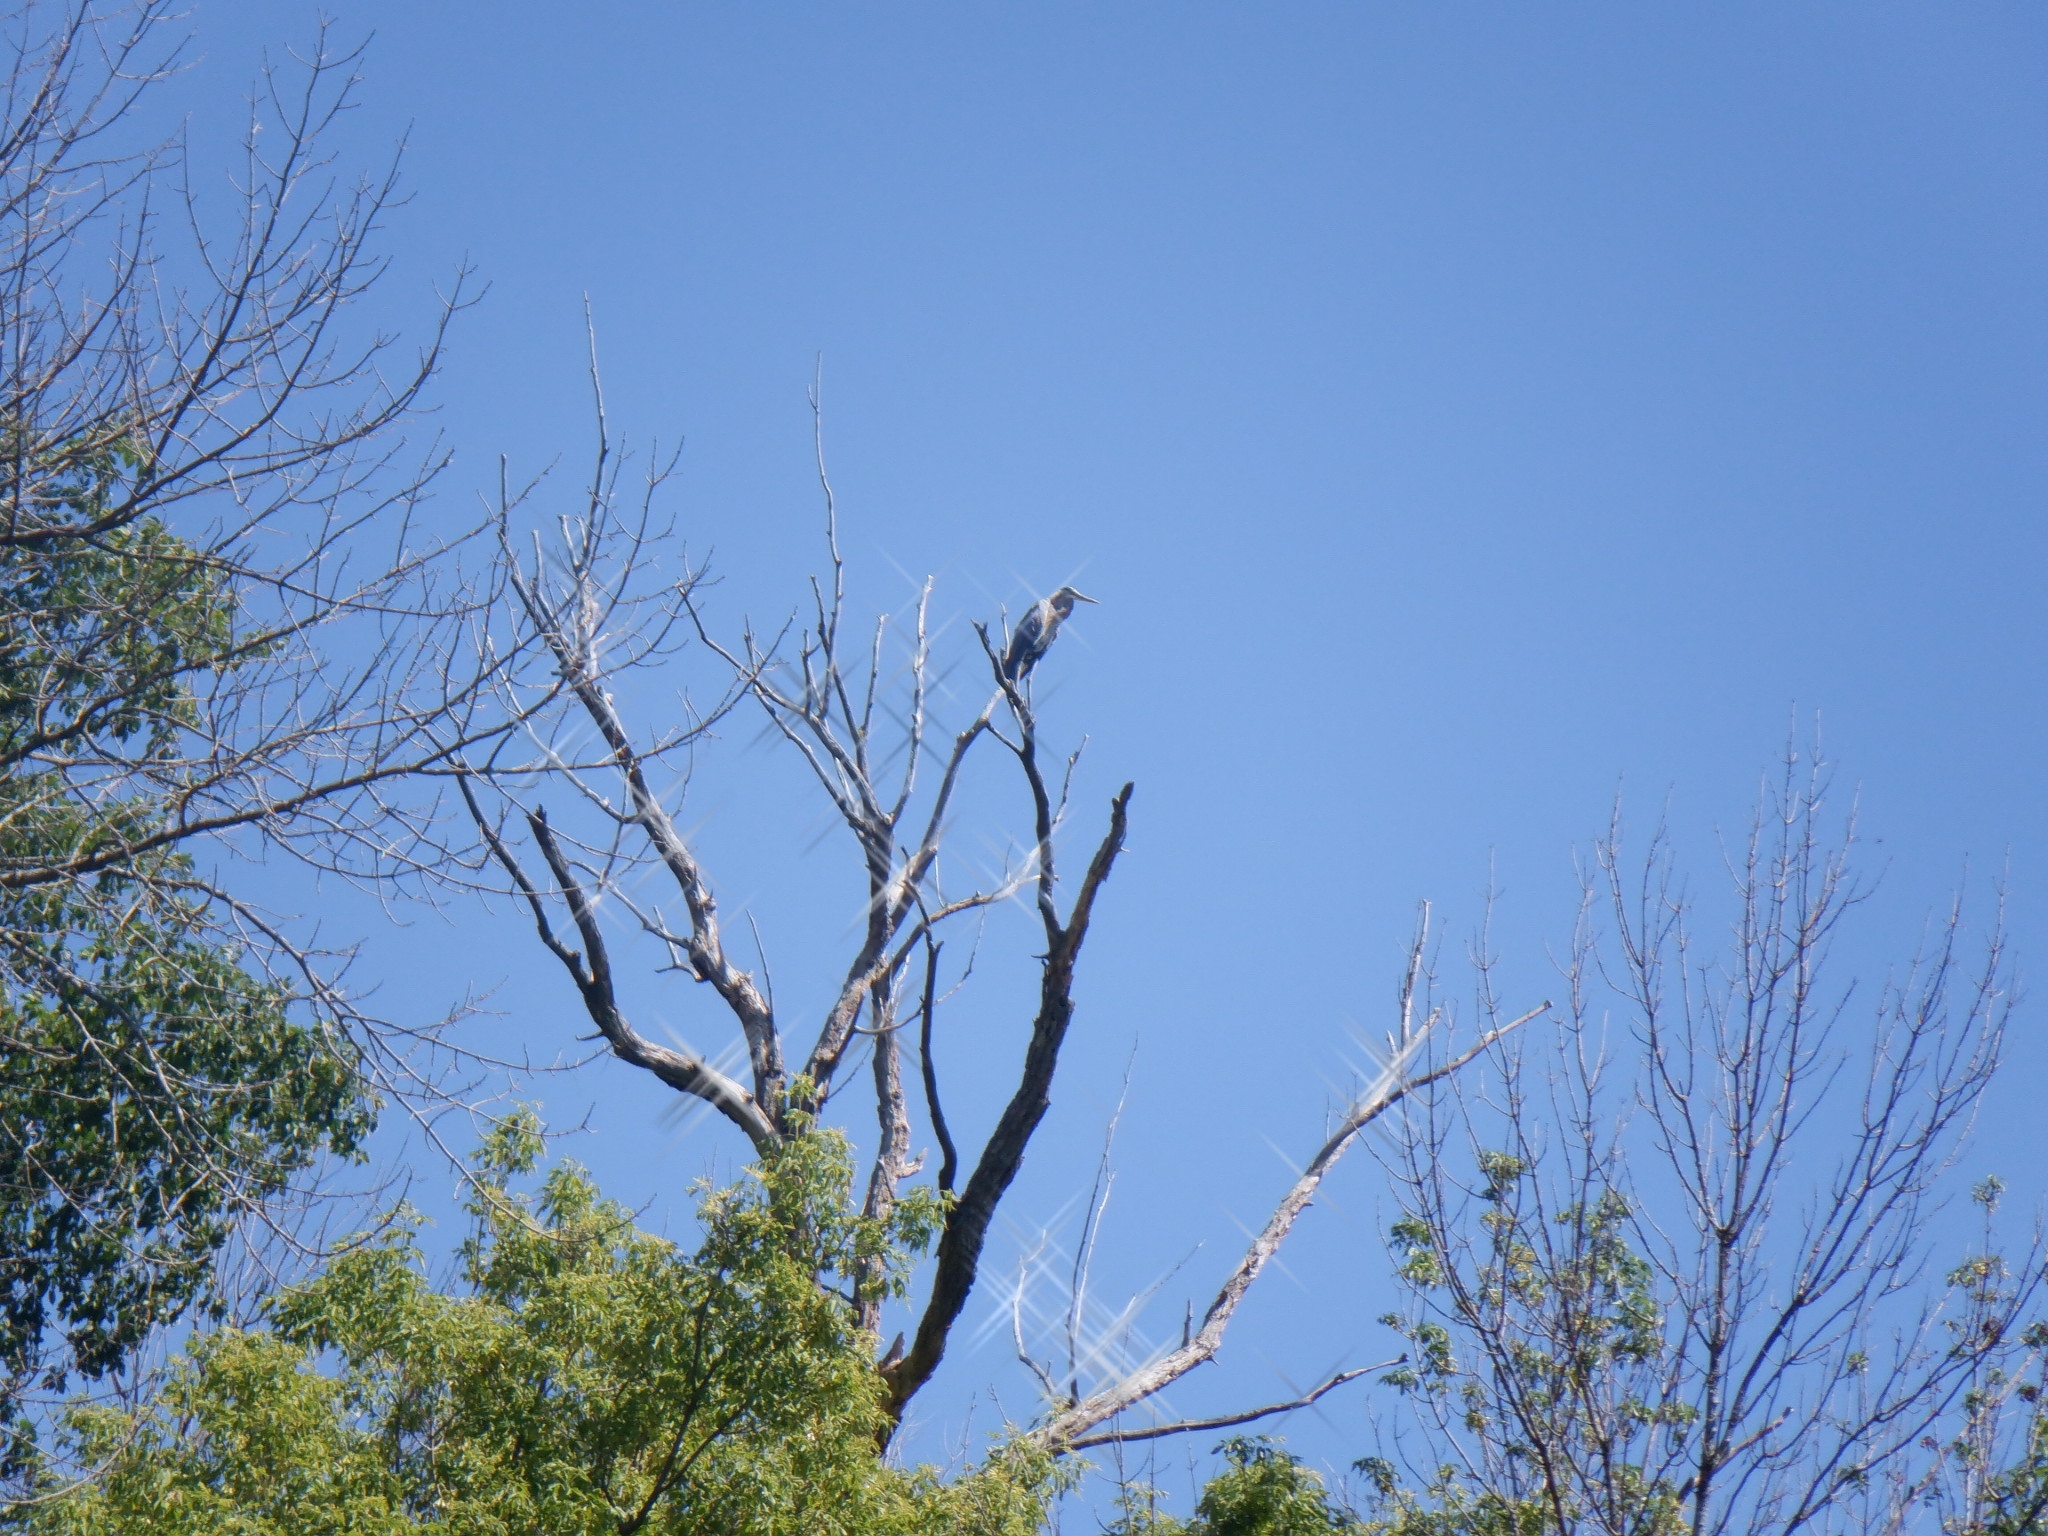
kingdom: Animalia
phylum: Chordata
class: Aves
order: Pelecaniformes
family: Ardeidae
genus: Ardea
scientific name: Ardea herodias
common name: Great blue heron
